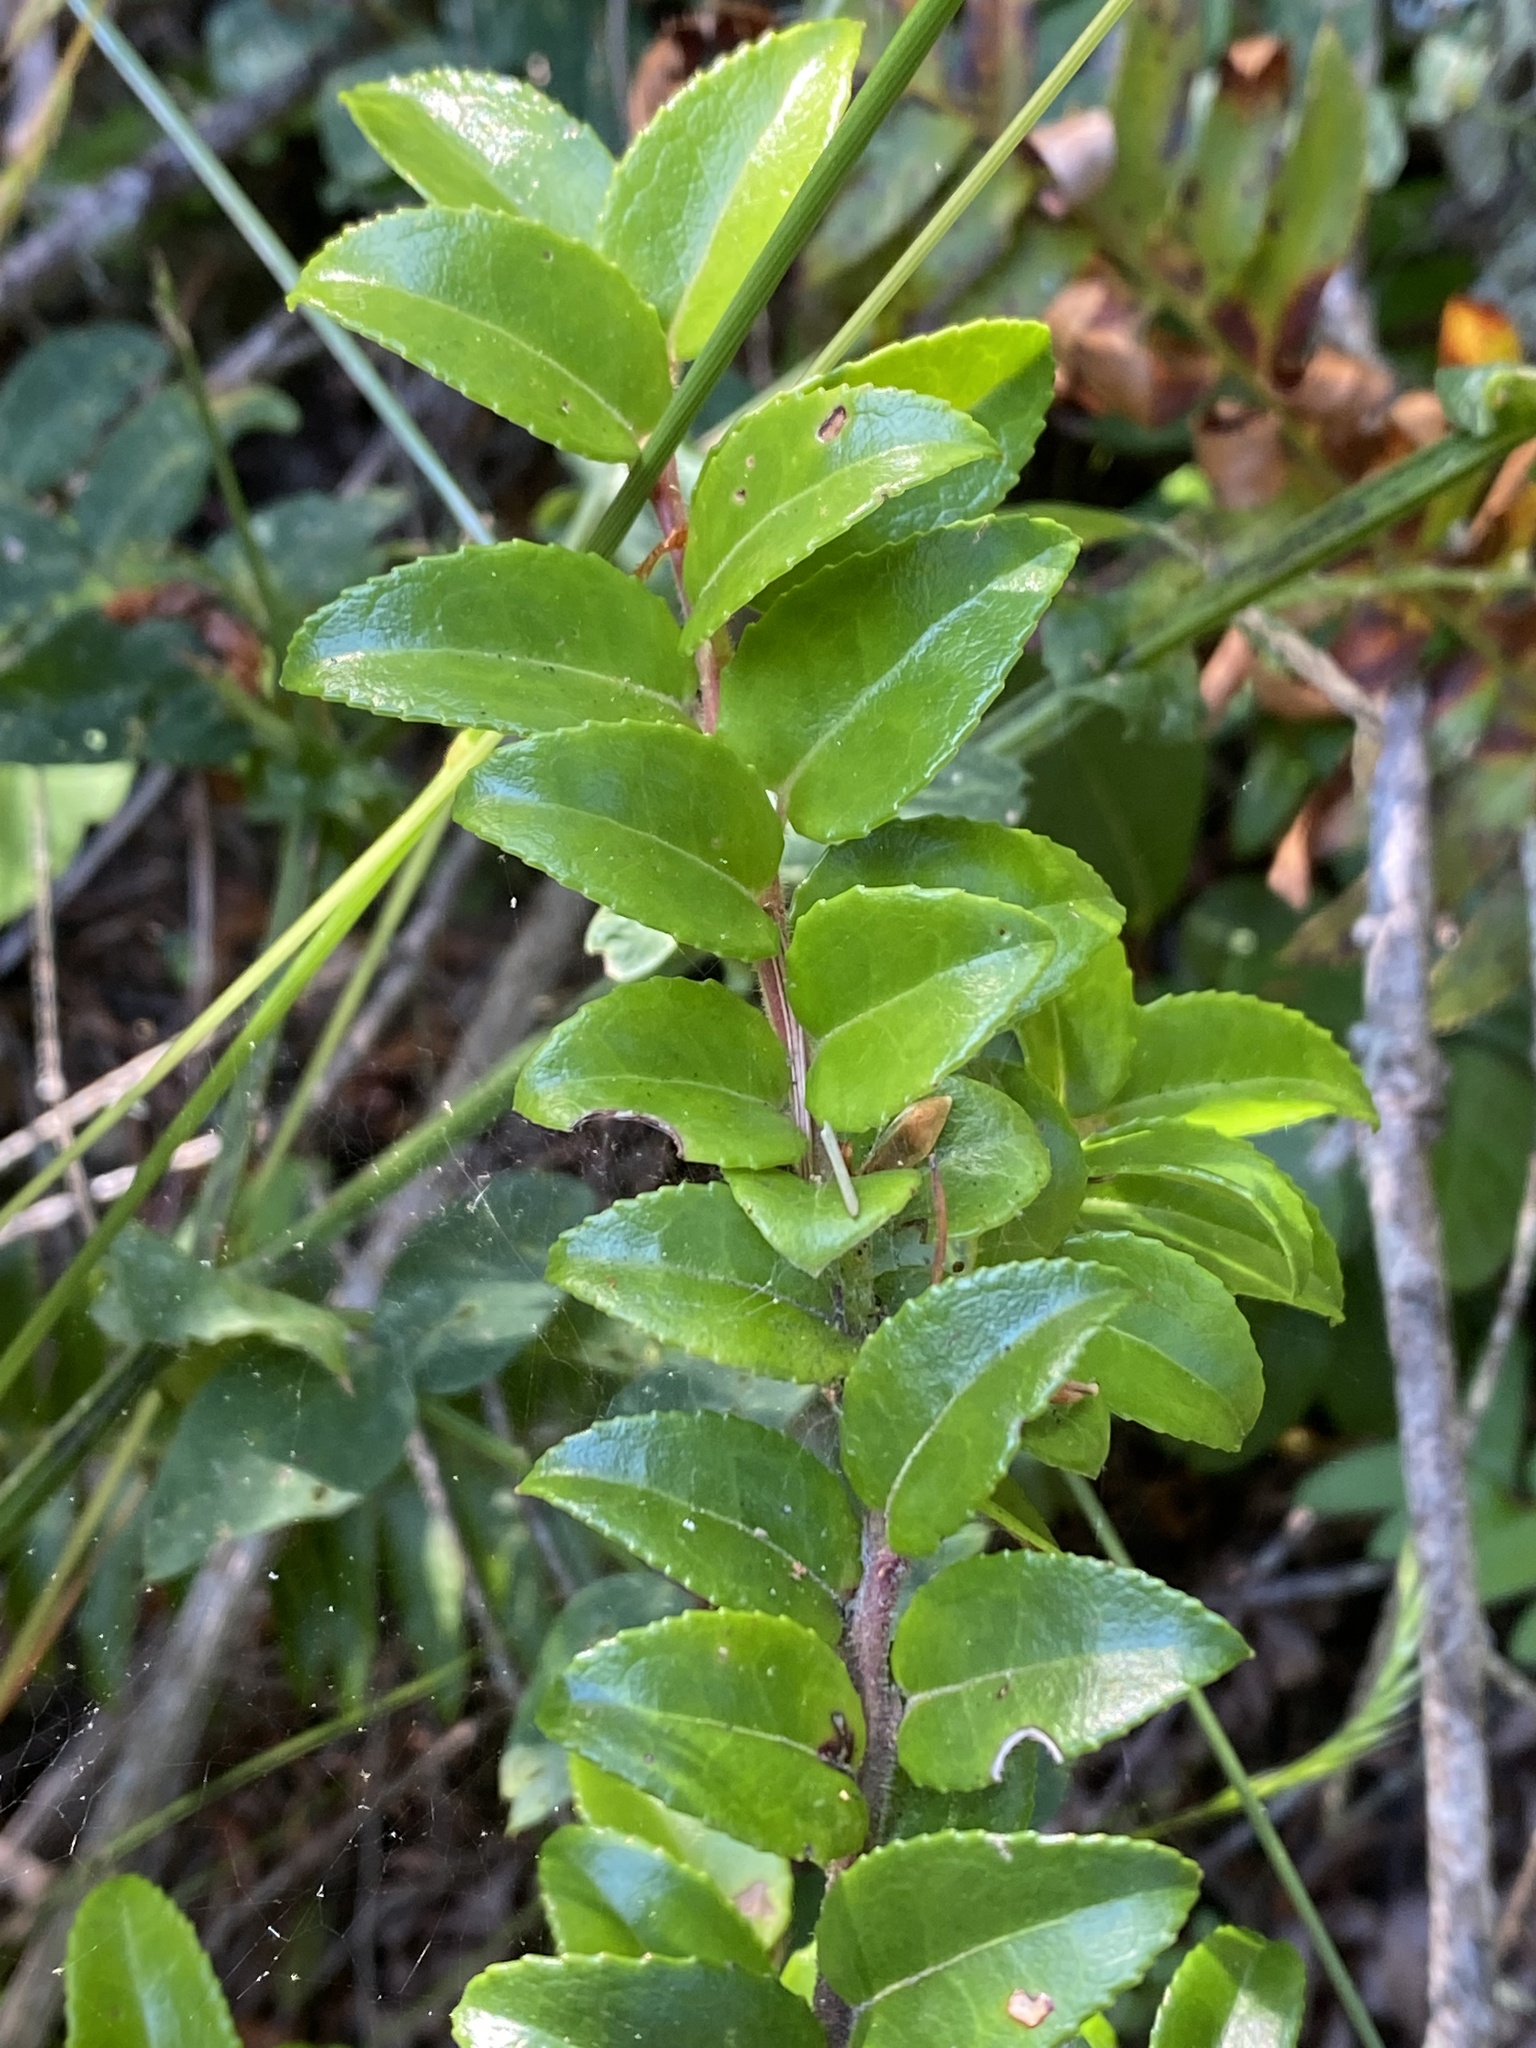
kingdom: Plantae
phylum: Tracheophyta
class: Magnoliopsida
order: Ericales
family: Ericaceae
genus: Vaccinium
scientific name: Vaccinium ovatum
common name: California-huckleberry
